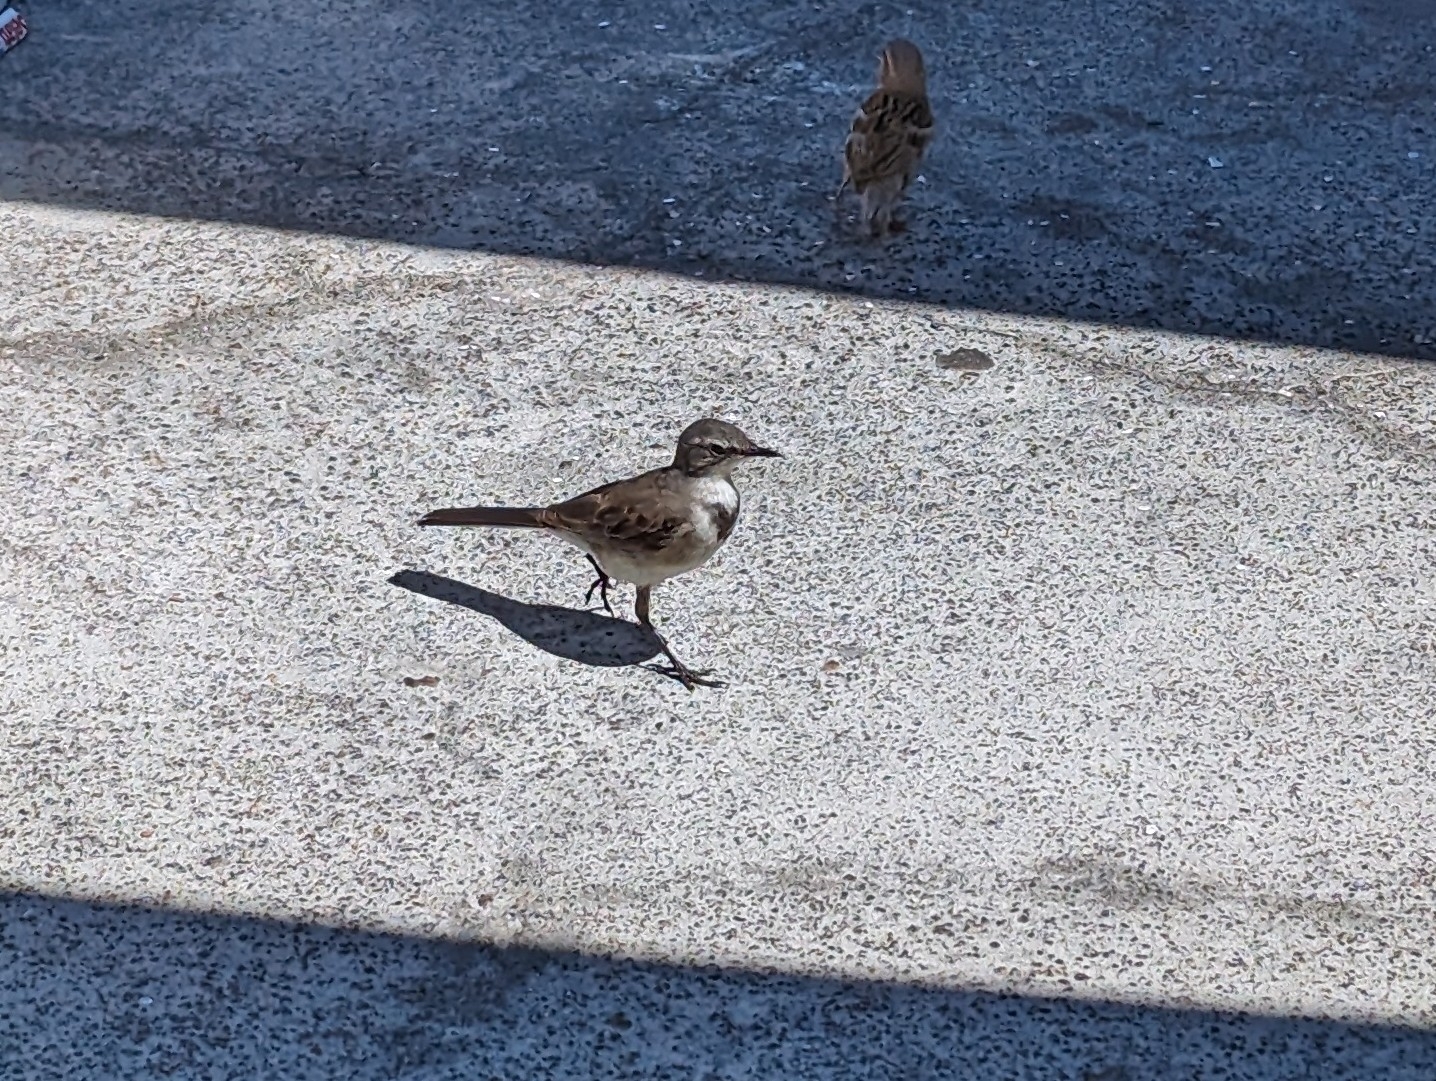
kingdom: Animalia
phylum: Chordata
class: Aves
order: Passeriformes
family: Motacillidae
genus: Motacilla
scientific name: Motacilla capensis
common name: Cape wagtail
